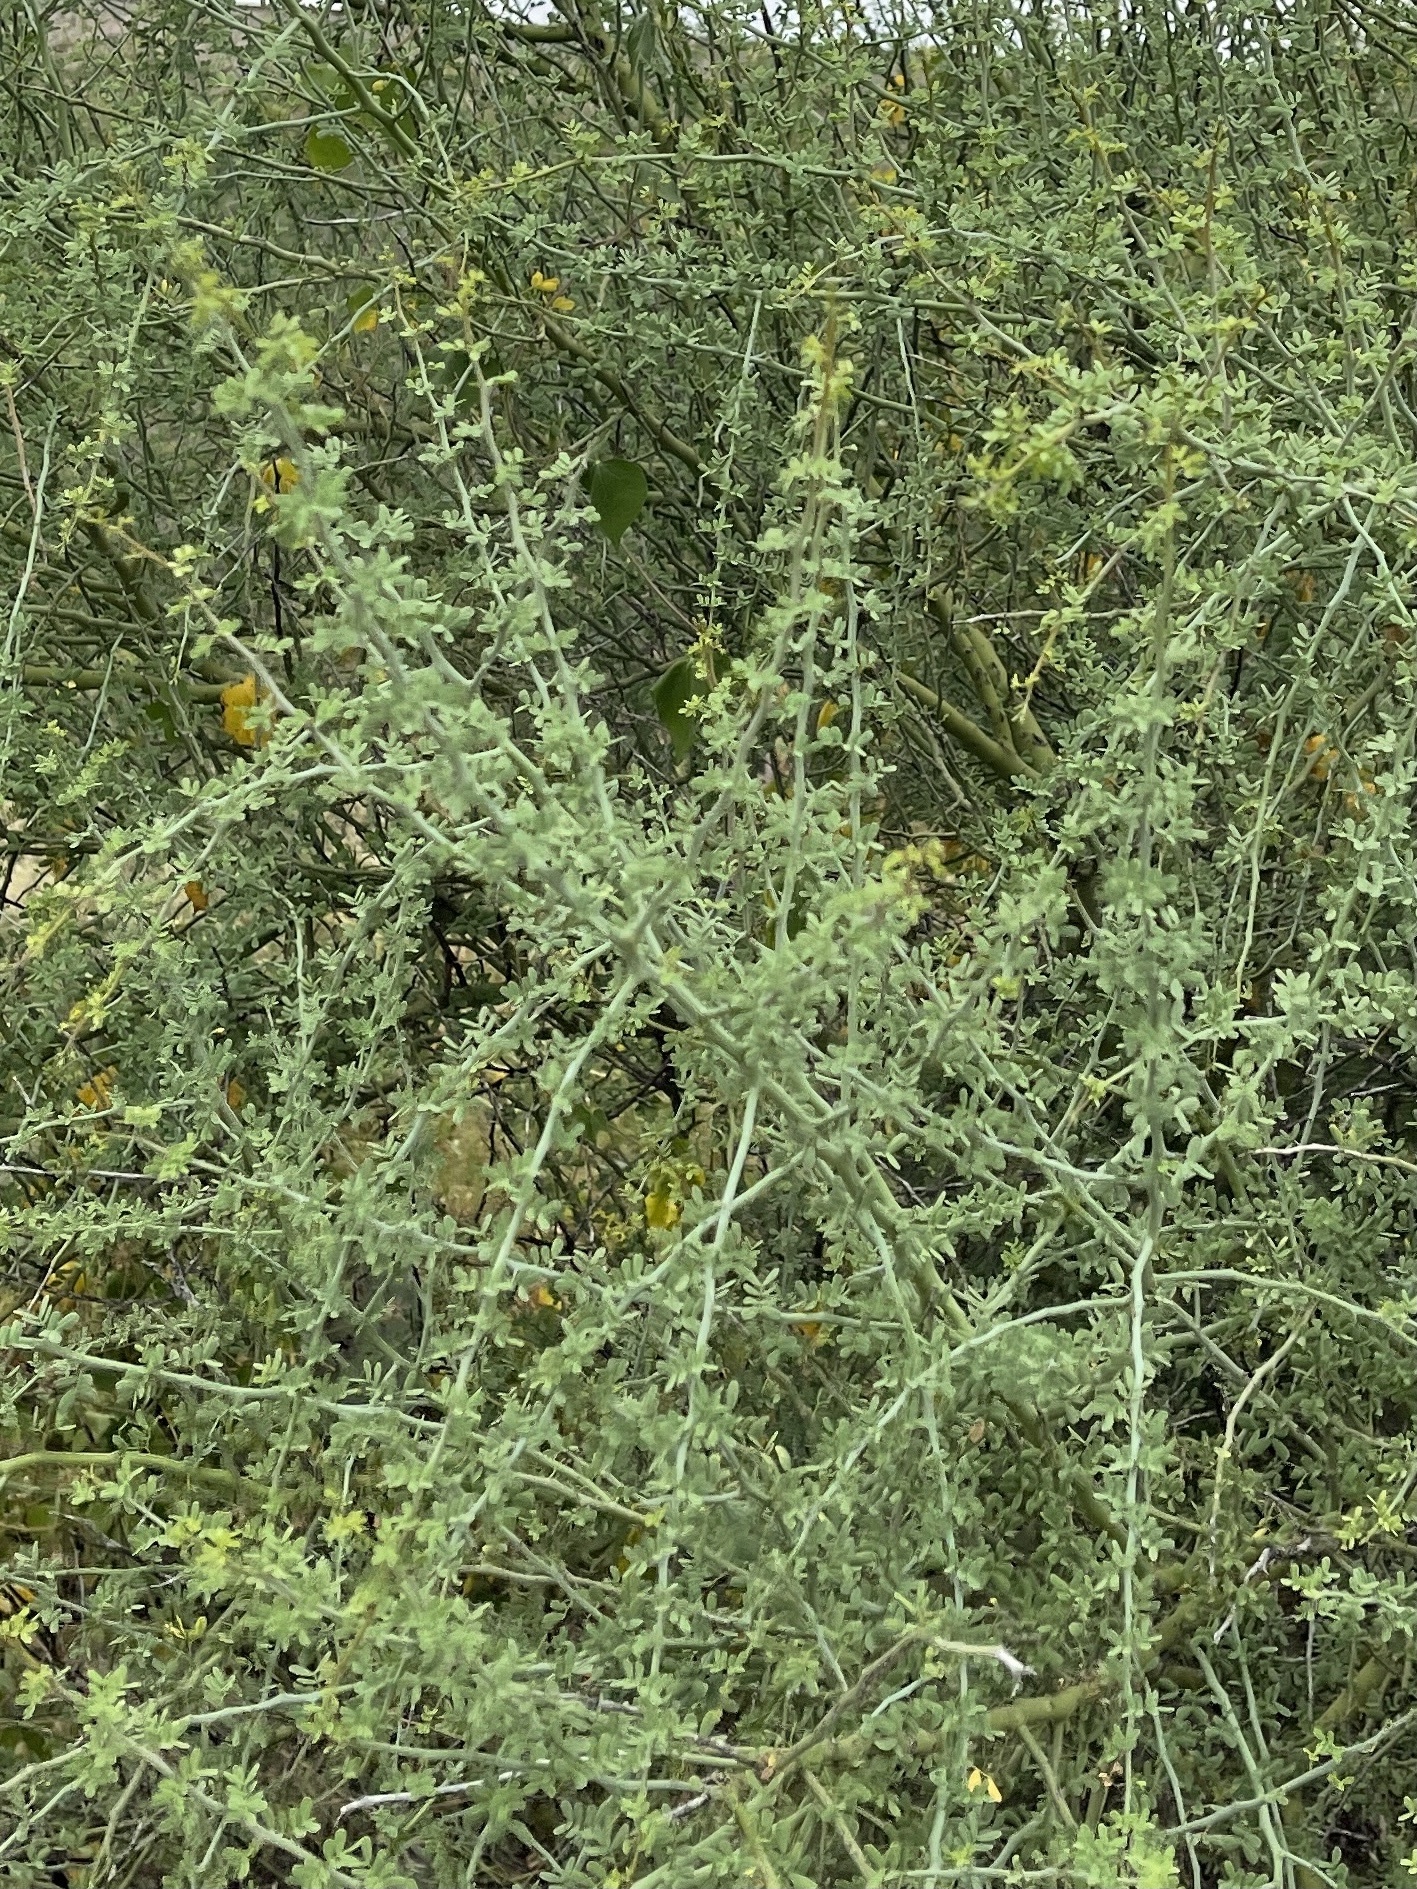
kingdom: Plantae
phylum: Tracheophyta
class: Magnoliopsida
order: Fabales
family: Fabaceae
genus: Parkinsonia
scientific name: Parkinsonia florida
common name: Blue paloverde
